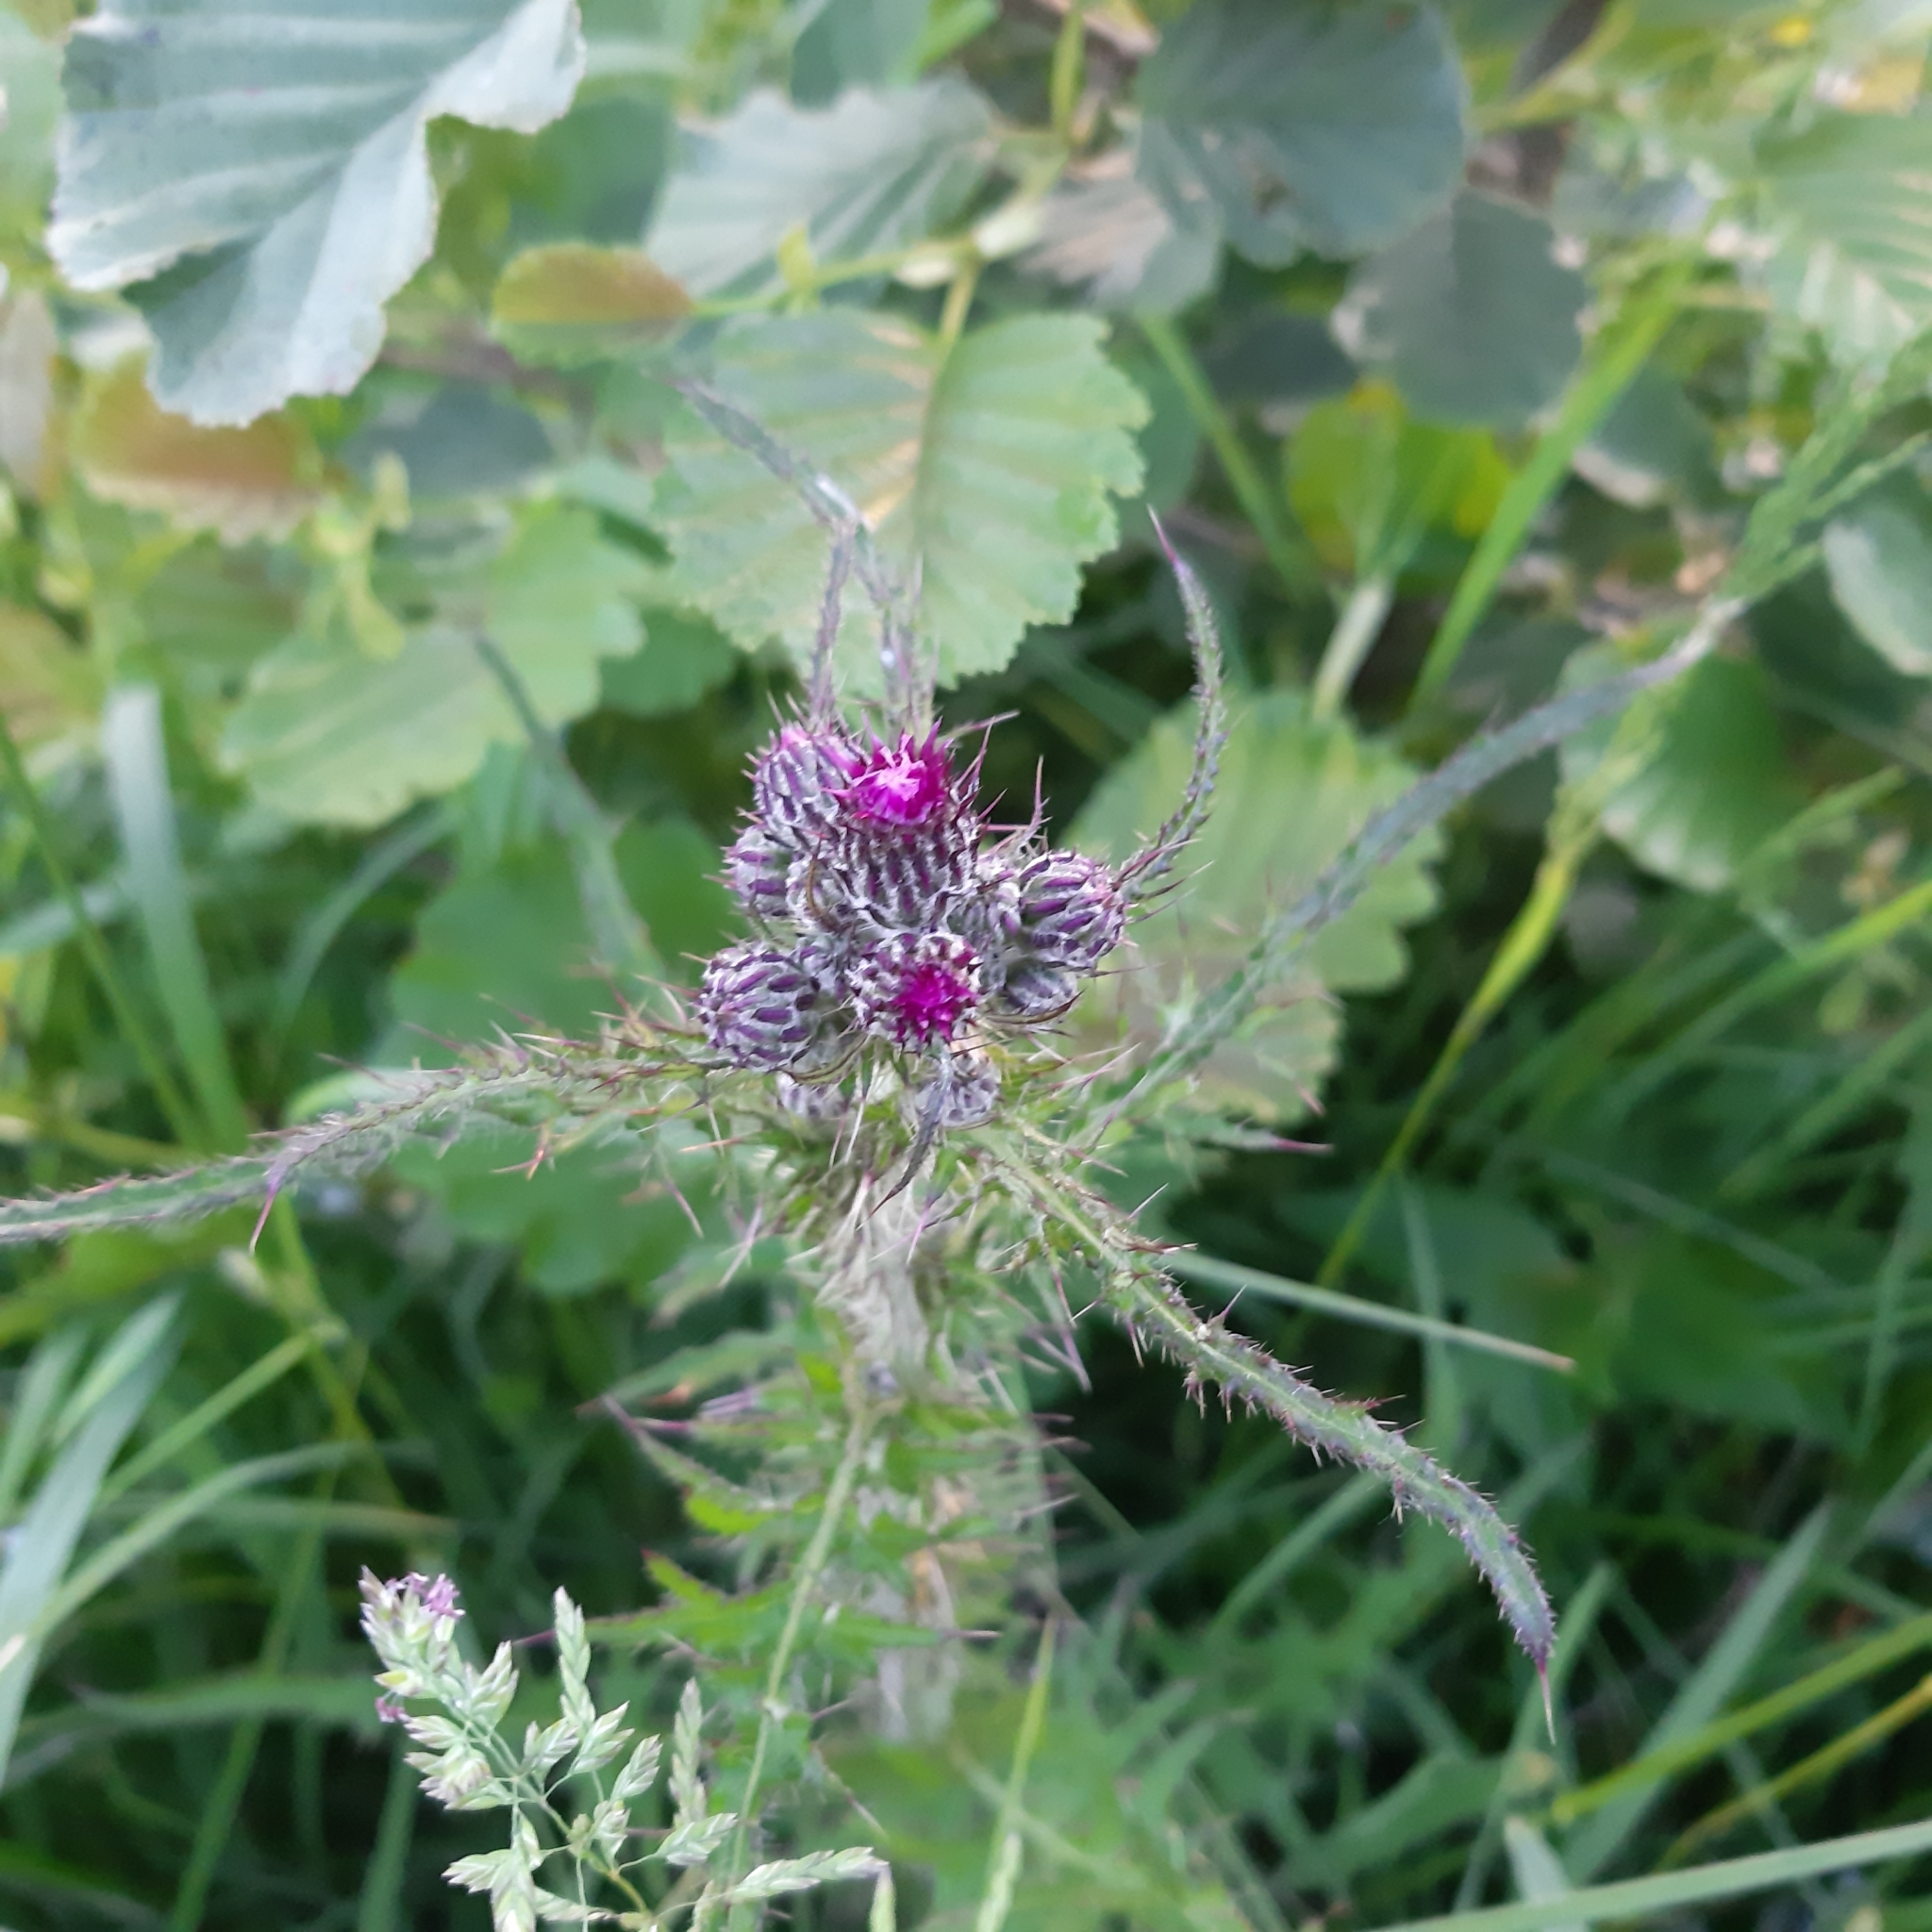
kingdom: Plantae
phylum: Tracheophyta
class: Magnoliopsida
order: Asterales
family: Asteraceae
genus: Cirsium
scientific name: Cirsium palustre
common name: Marsh thistle
